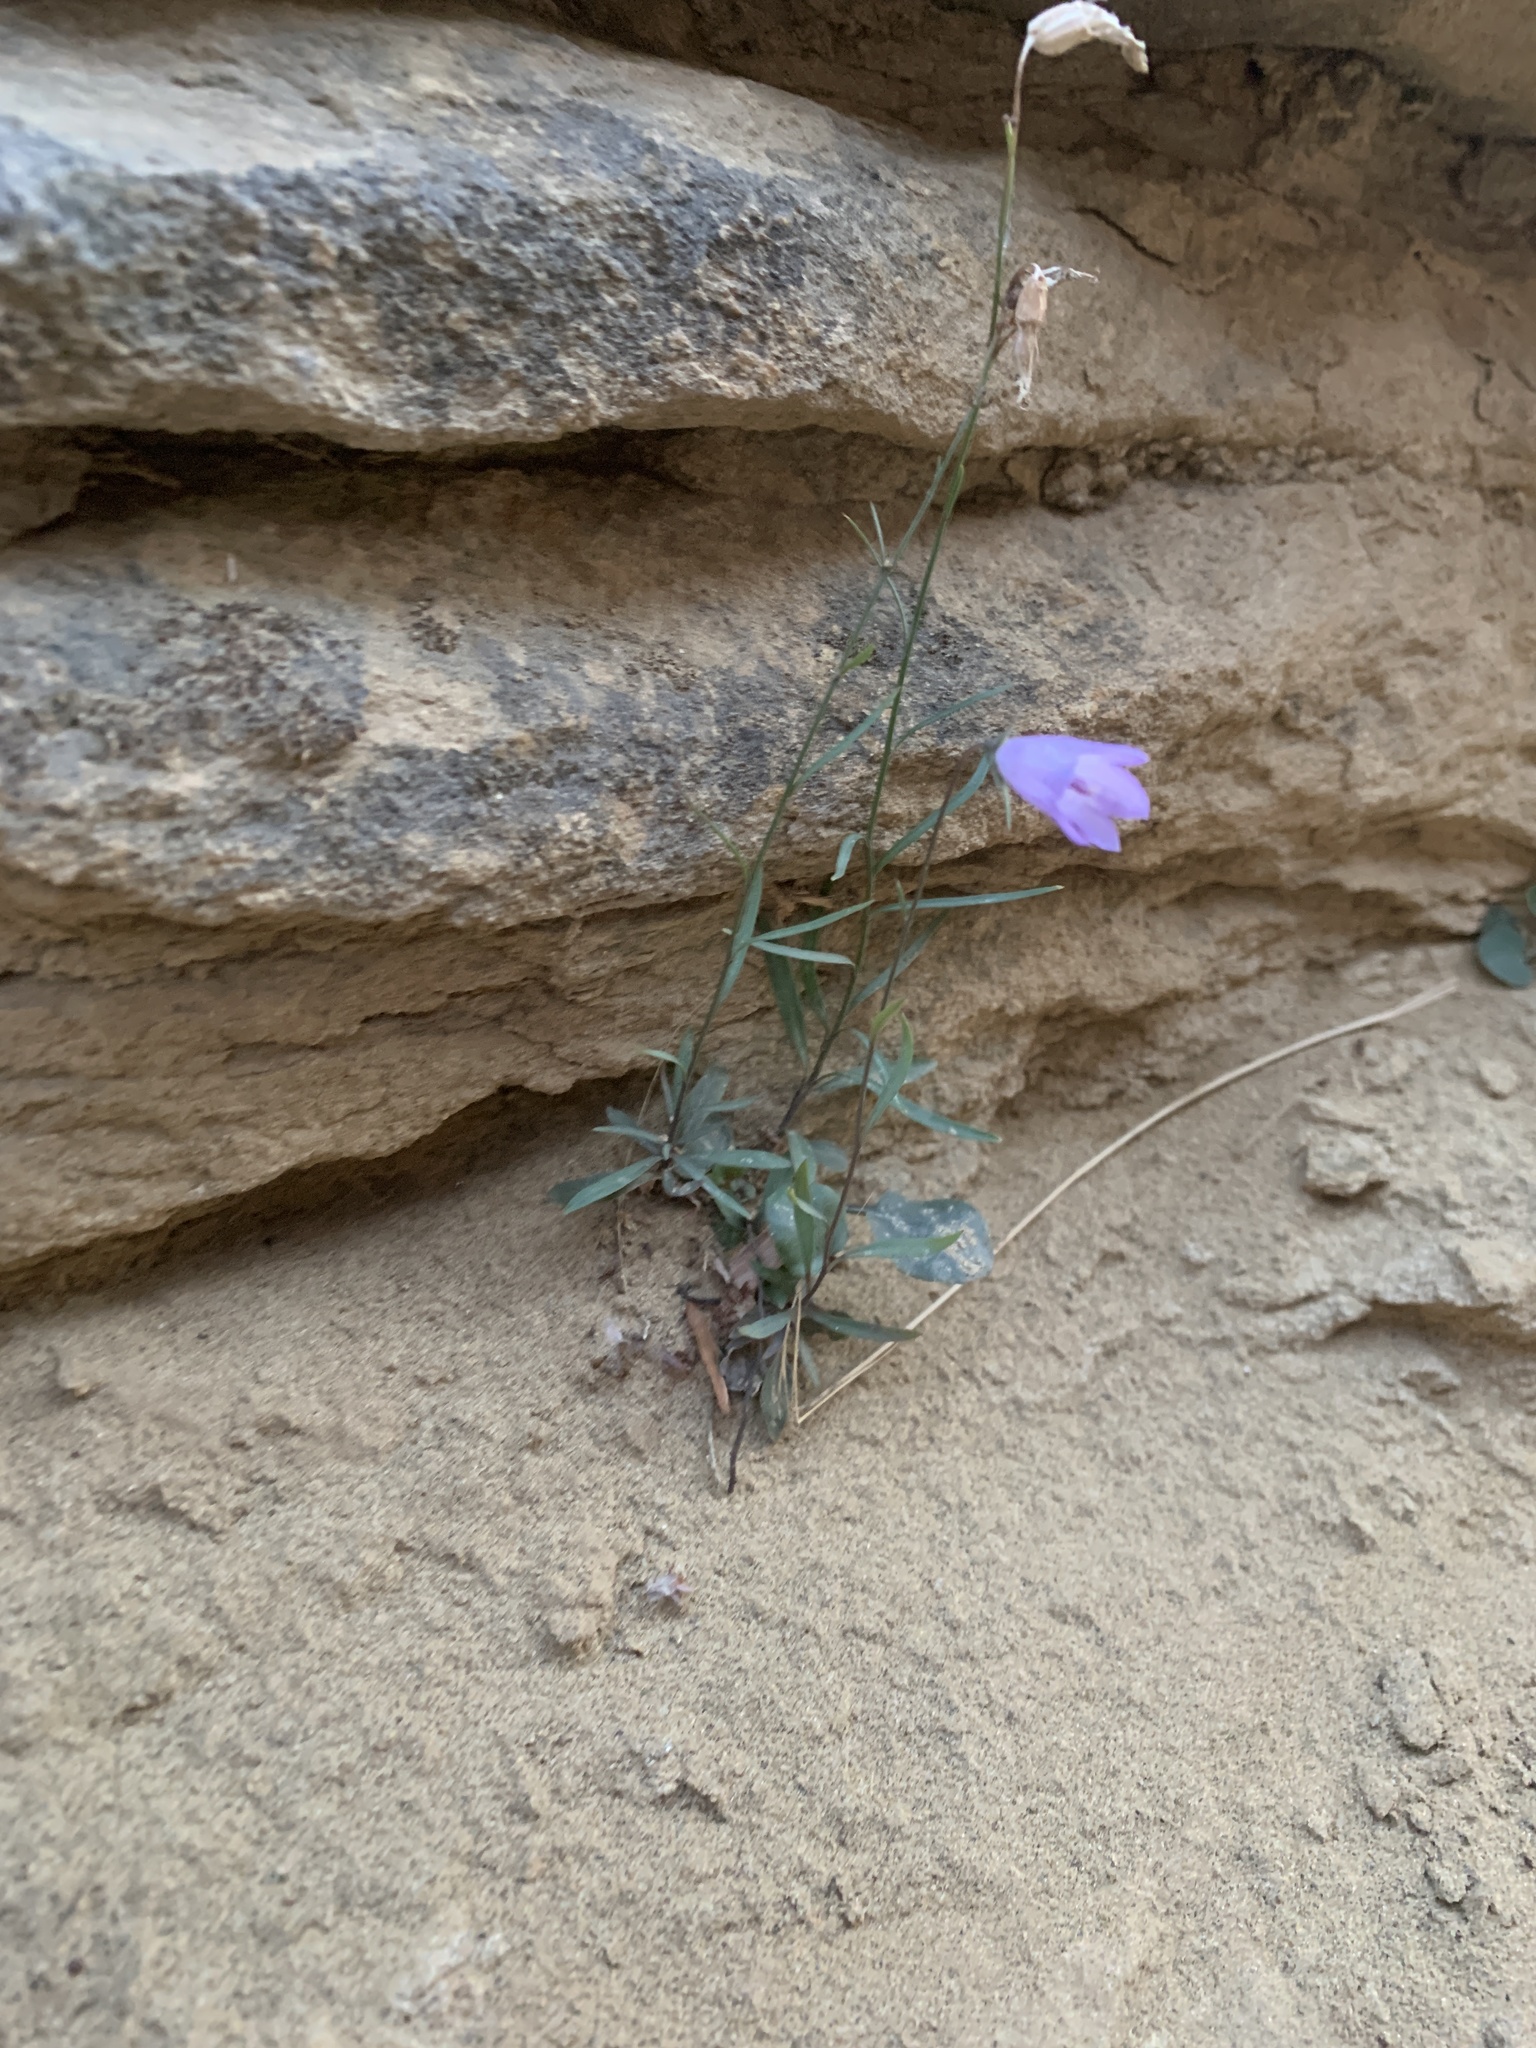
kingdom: Plantae
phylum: Tracheophyta
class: Magnoliopsida
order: Asterales
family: Campanulaceae
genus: Campanula
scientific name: Campanula alaskana
